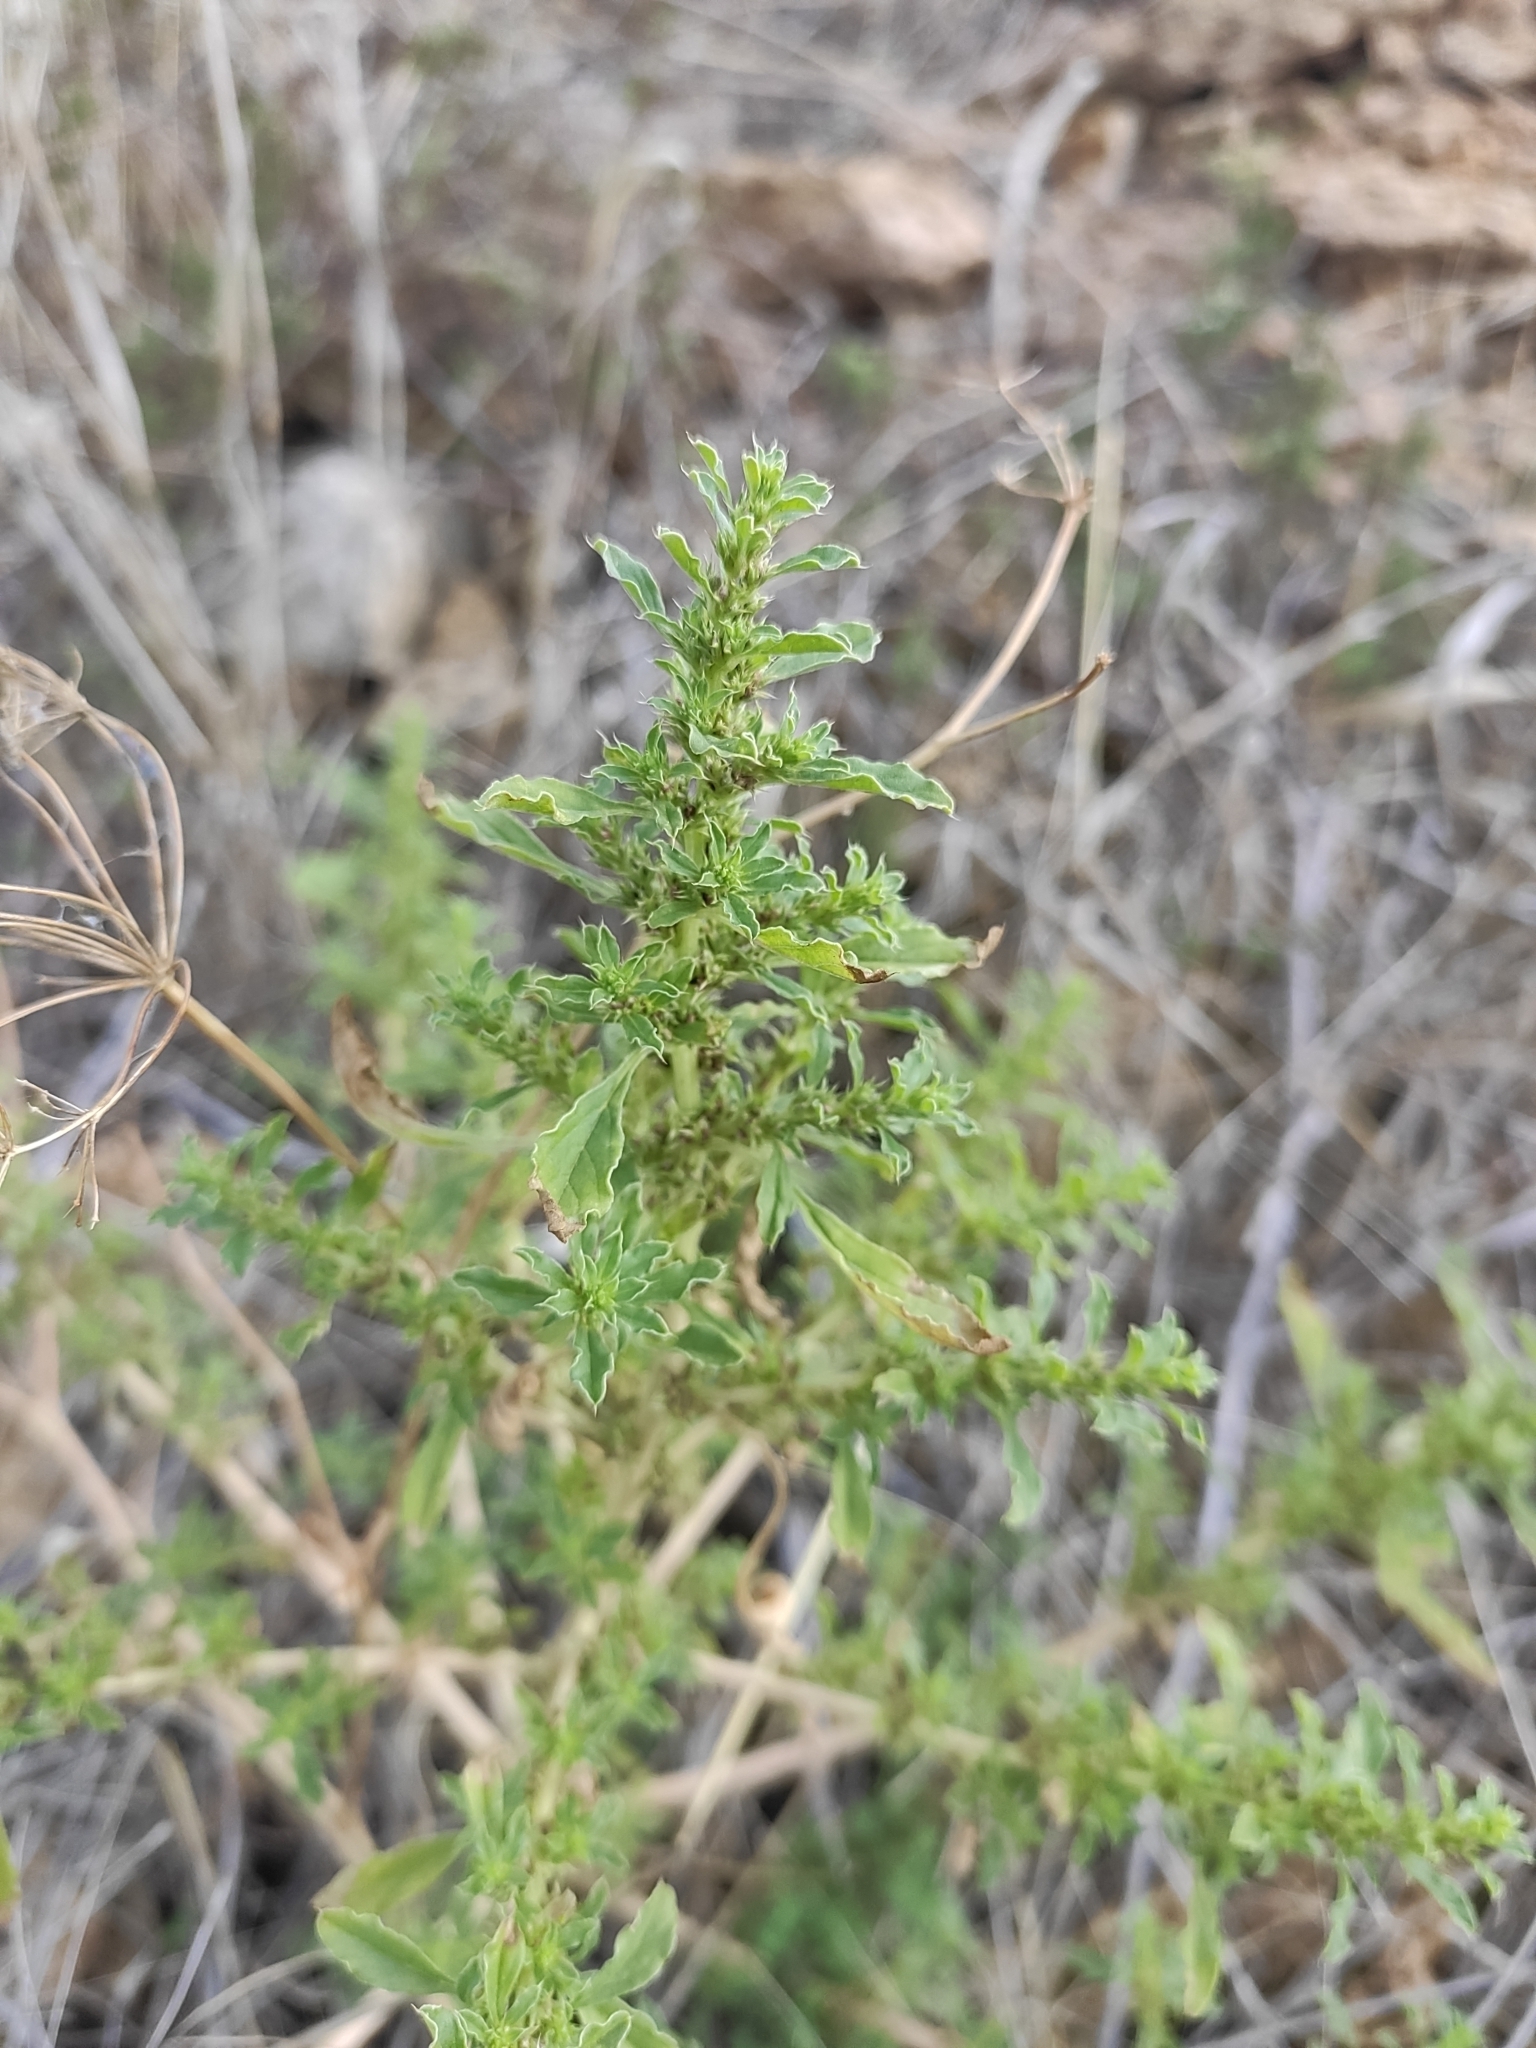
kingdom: Plantae
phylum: Tracheophyta
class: Magnoliopsida
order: Caryophyllales
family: Amaranthaceae
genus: Amaranthus
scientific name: Amaranthus albus
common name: White pigweed
